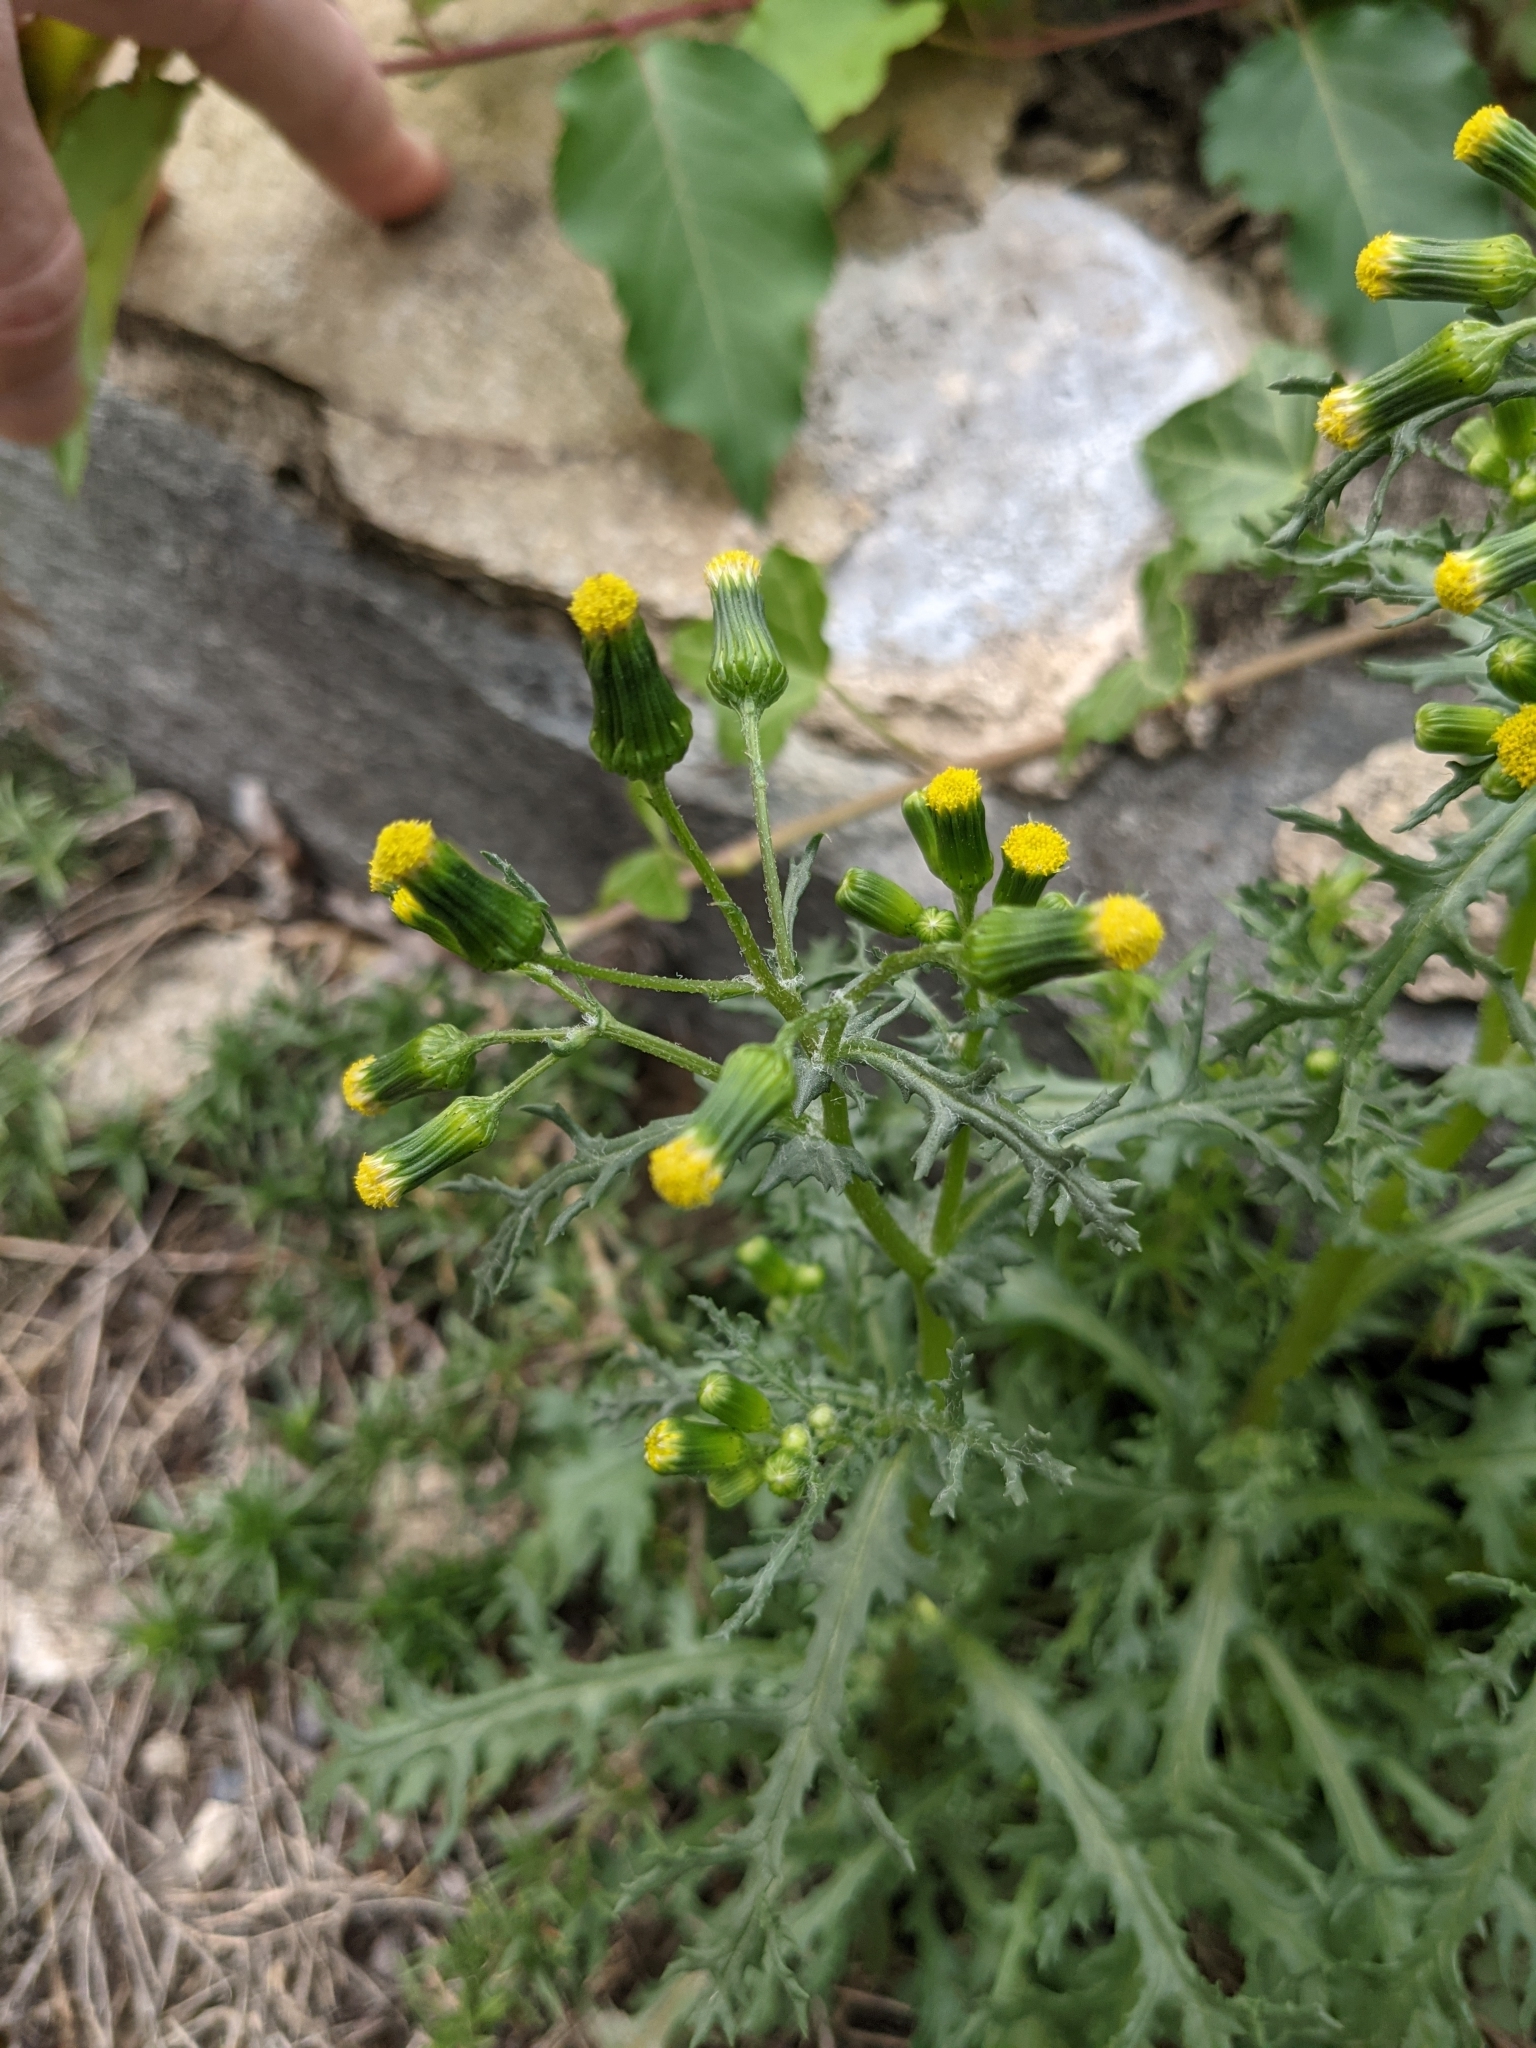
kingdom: Plantae
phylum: Tracheophyta
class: Magnoliopsida
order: Asterales
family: Asteraceae
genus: Senecio
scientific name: Senecio vulgaris
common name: Old-man-in-the-spring
